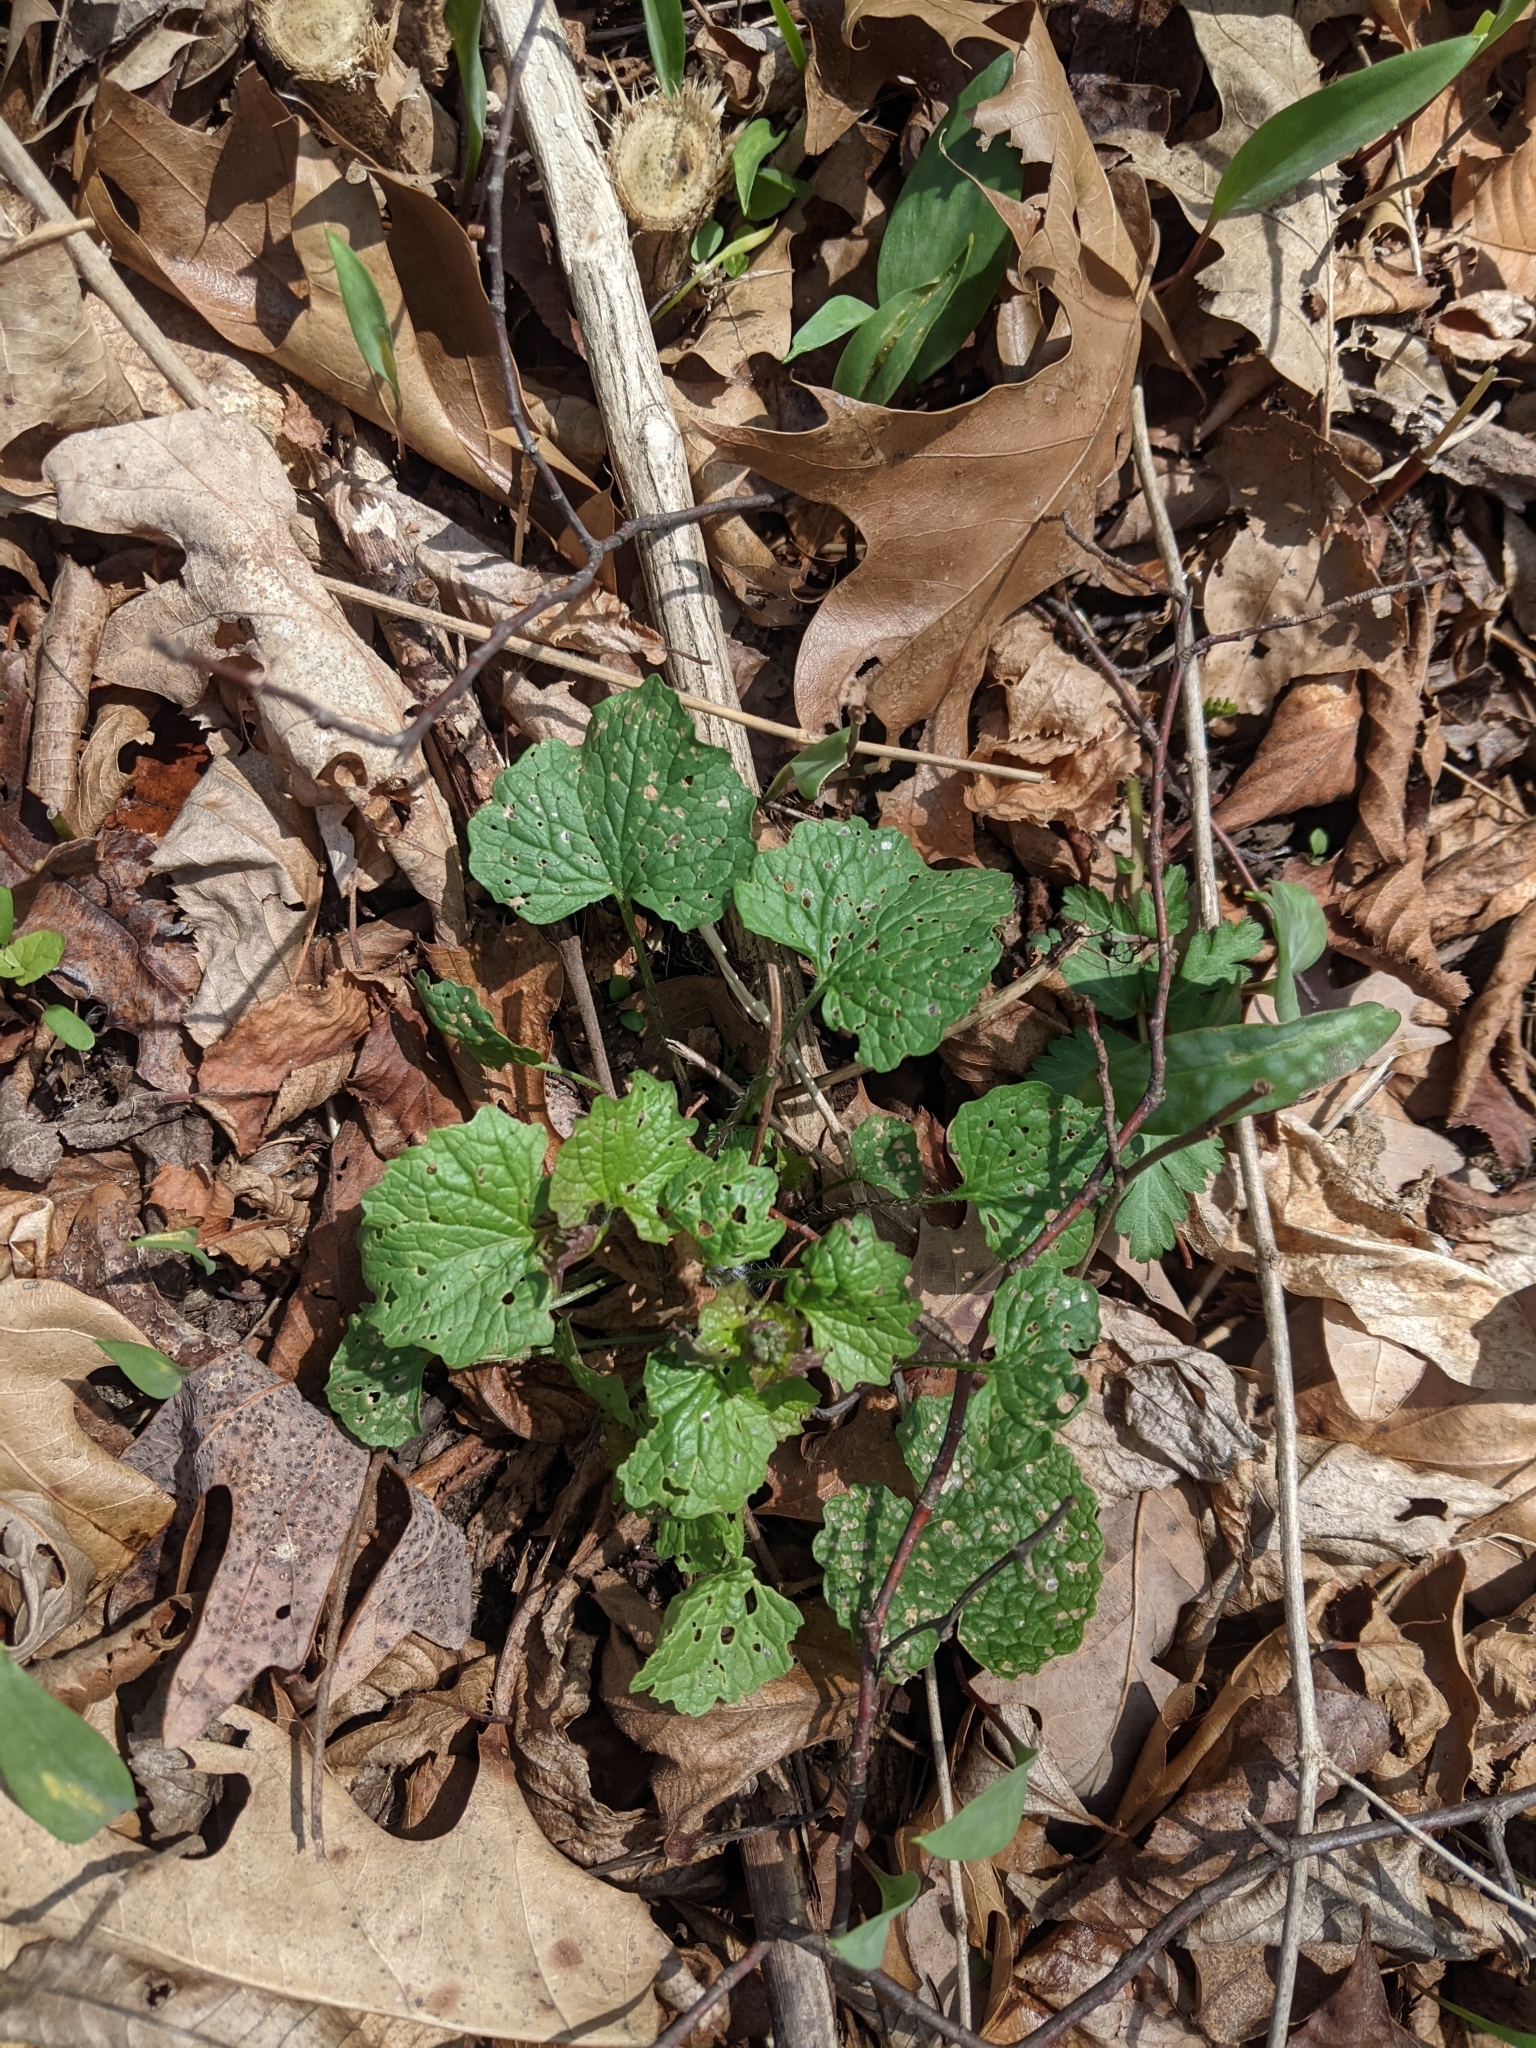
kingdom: Plantae
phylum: Tracheophyta
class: Magnoliopsida
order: Brassicales
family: Brassicaceae
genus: Alliaria
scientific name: Alliaria petiolata
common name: Garlic mustard
